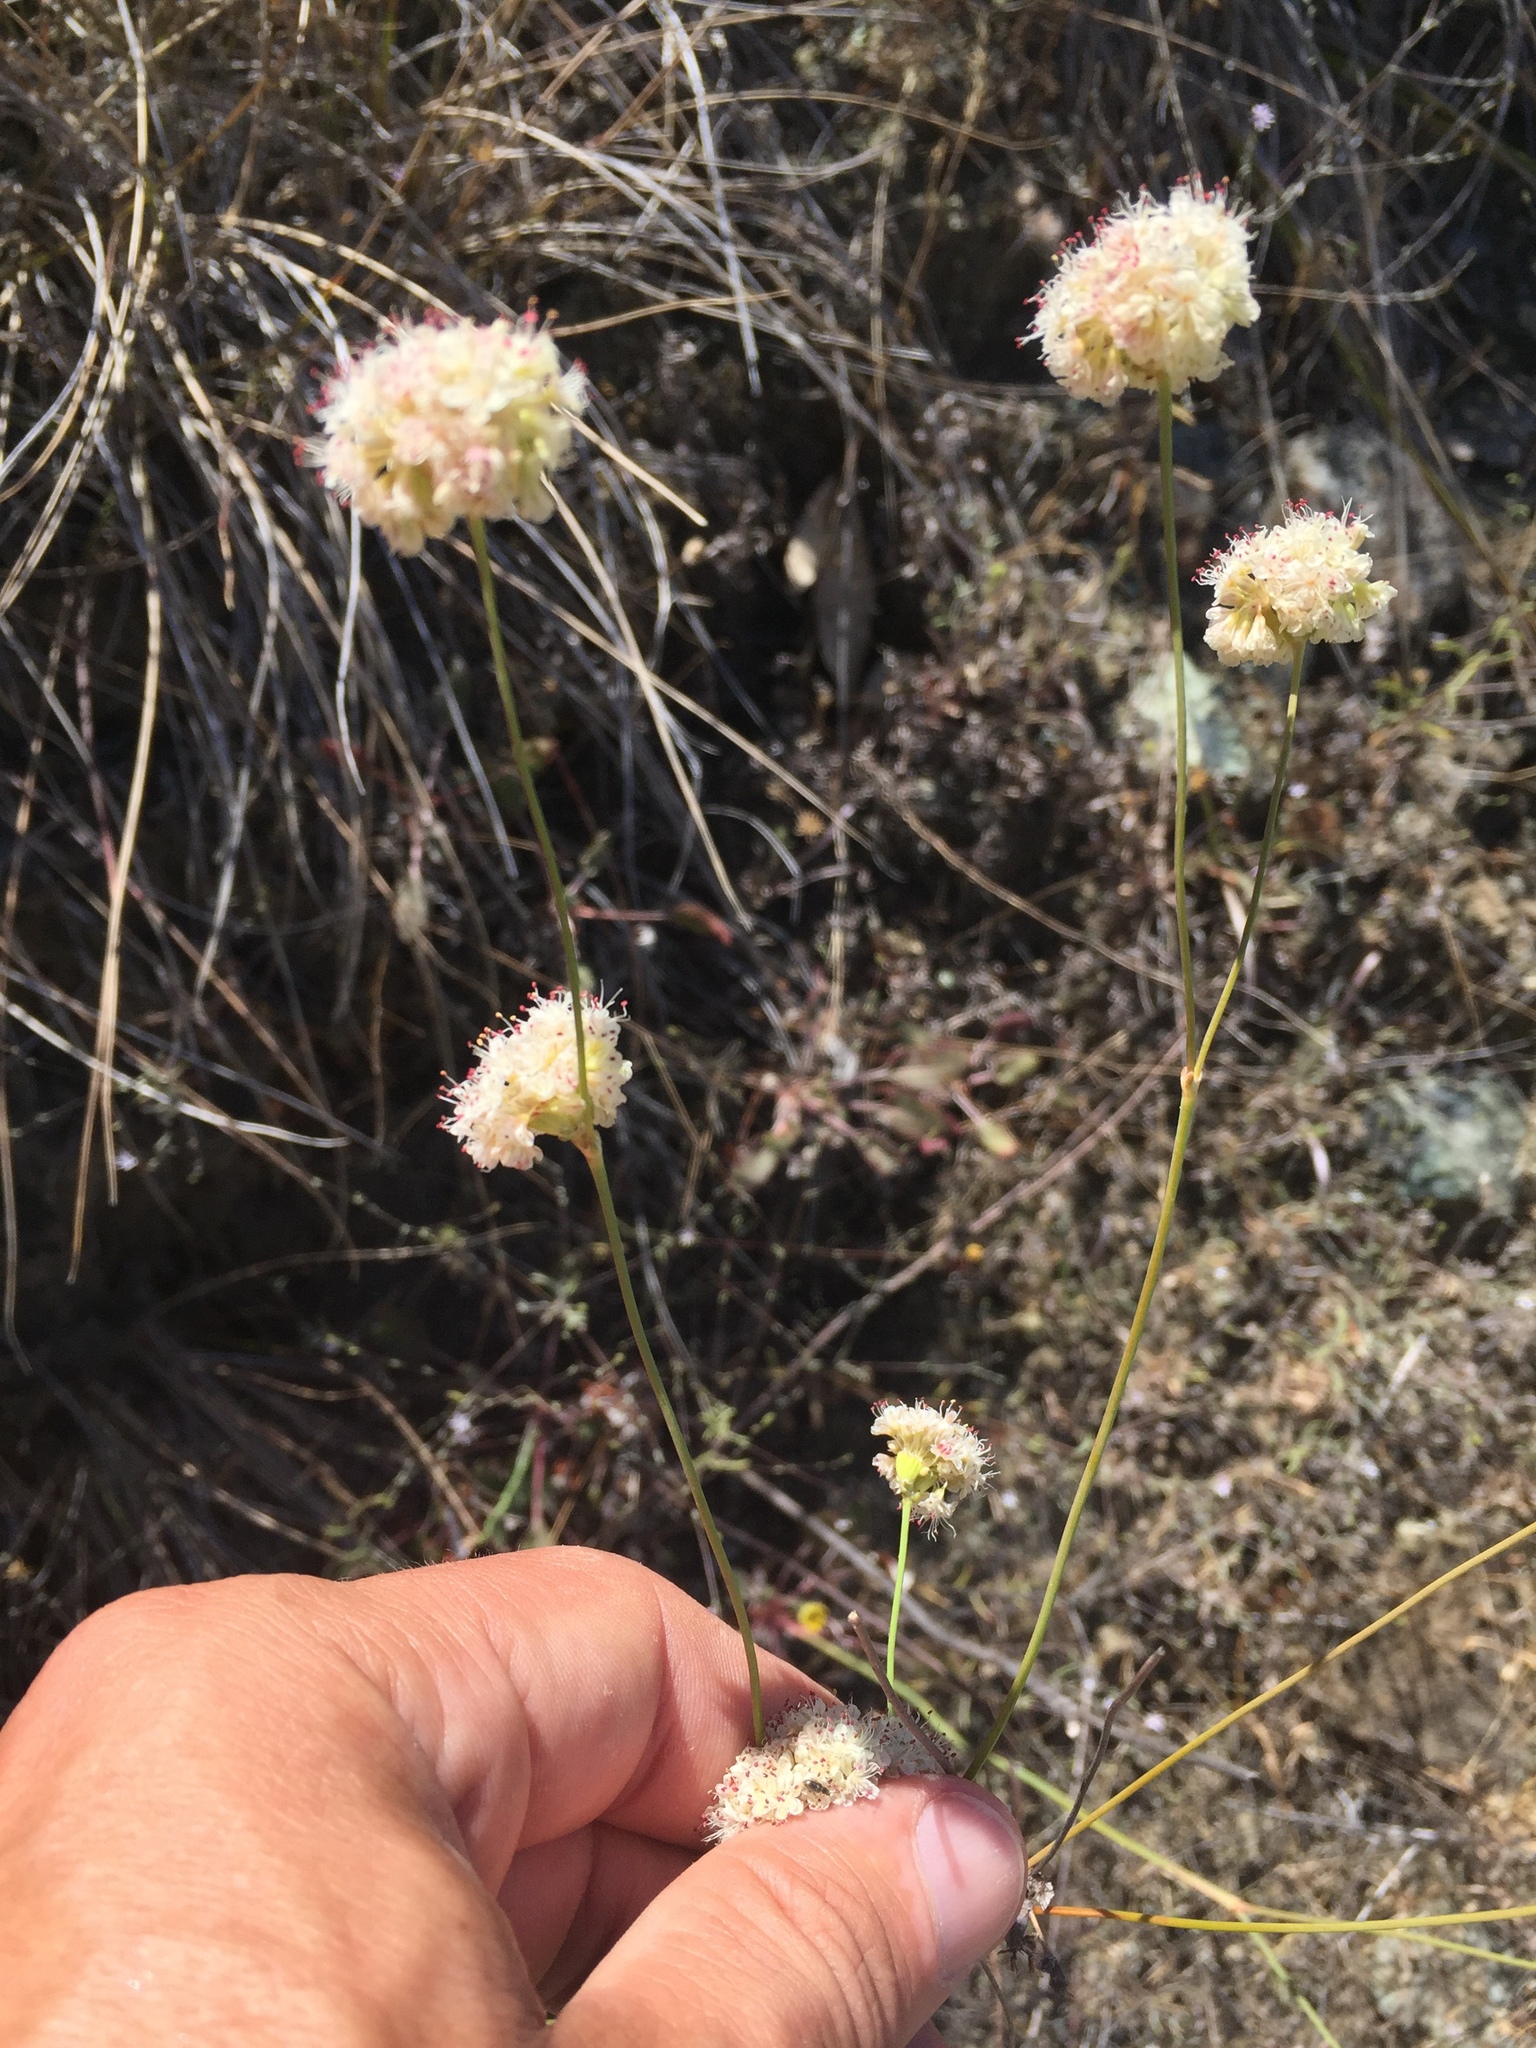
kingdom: Plantae
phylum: Tracheophyta
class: Magnoliopsida
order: Caryophyllales
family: Polygonaceae
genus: Eriogonum
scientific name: Eriogonum nudum
